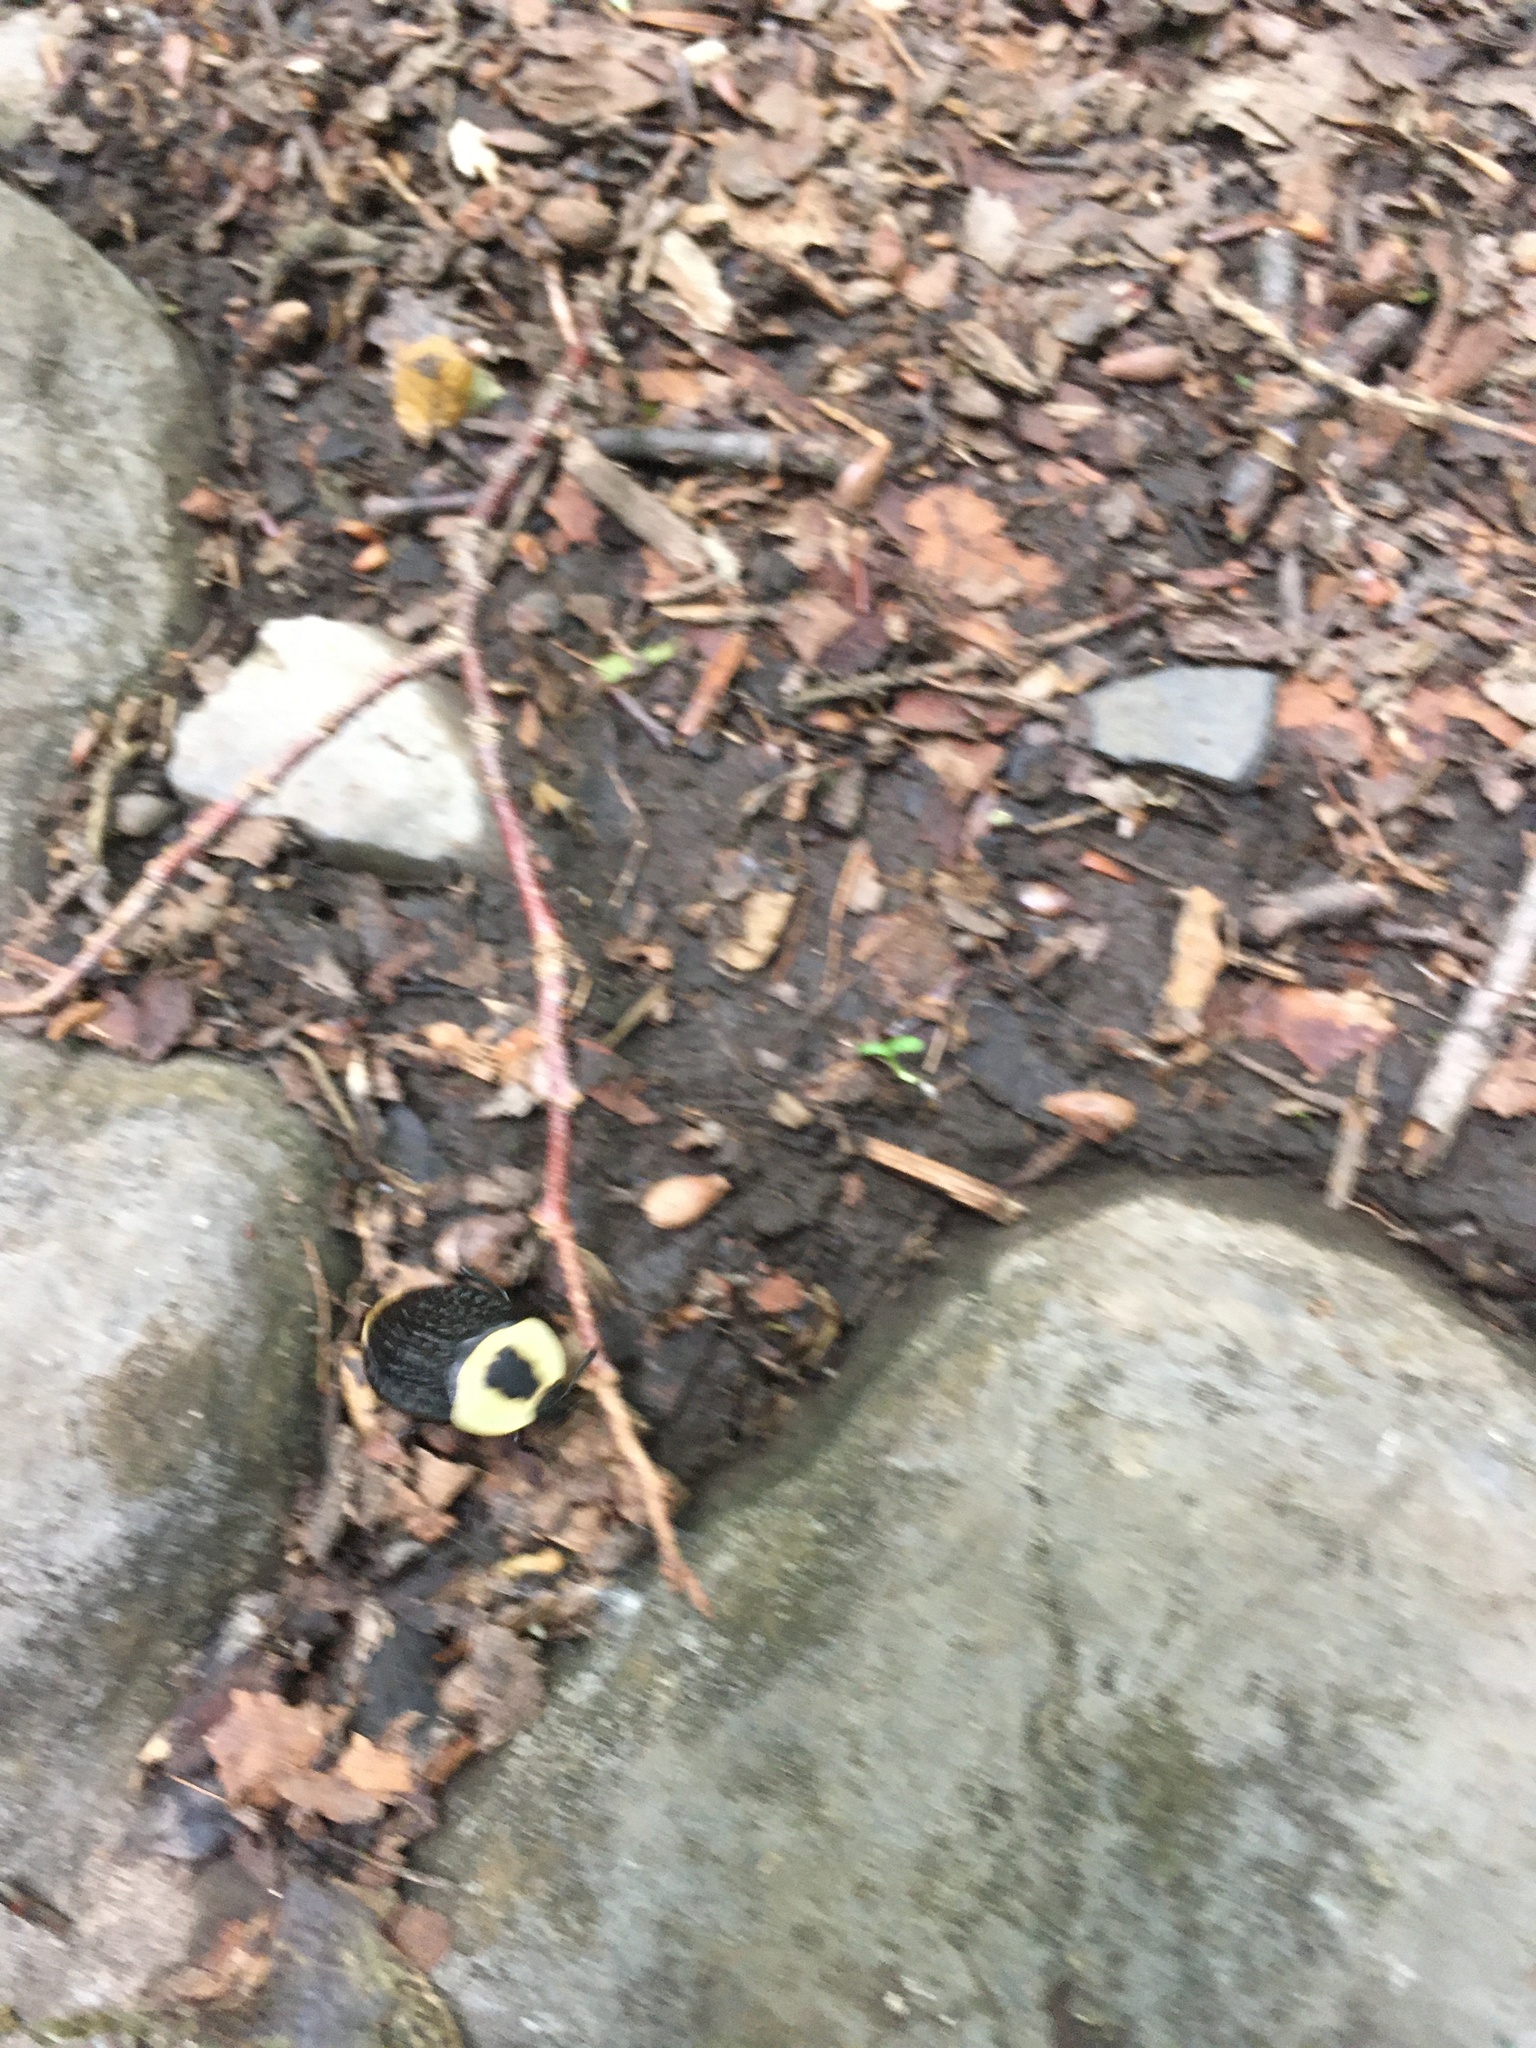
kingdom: Animalia
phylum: Arthropoda
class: Insecta
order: Coleoptera
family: Staphylinidae
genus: Necrophila
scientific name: Necrophila americana
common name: American carrion beetle
